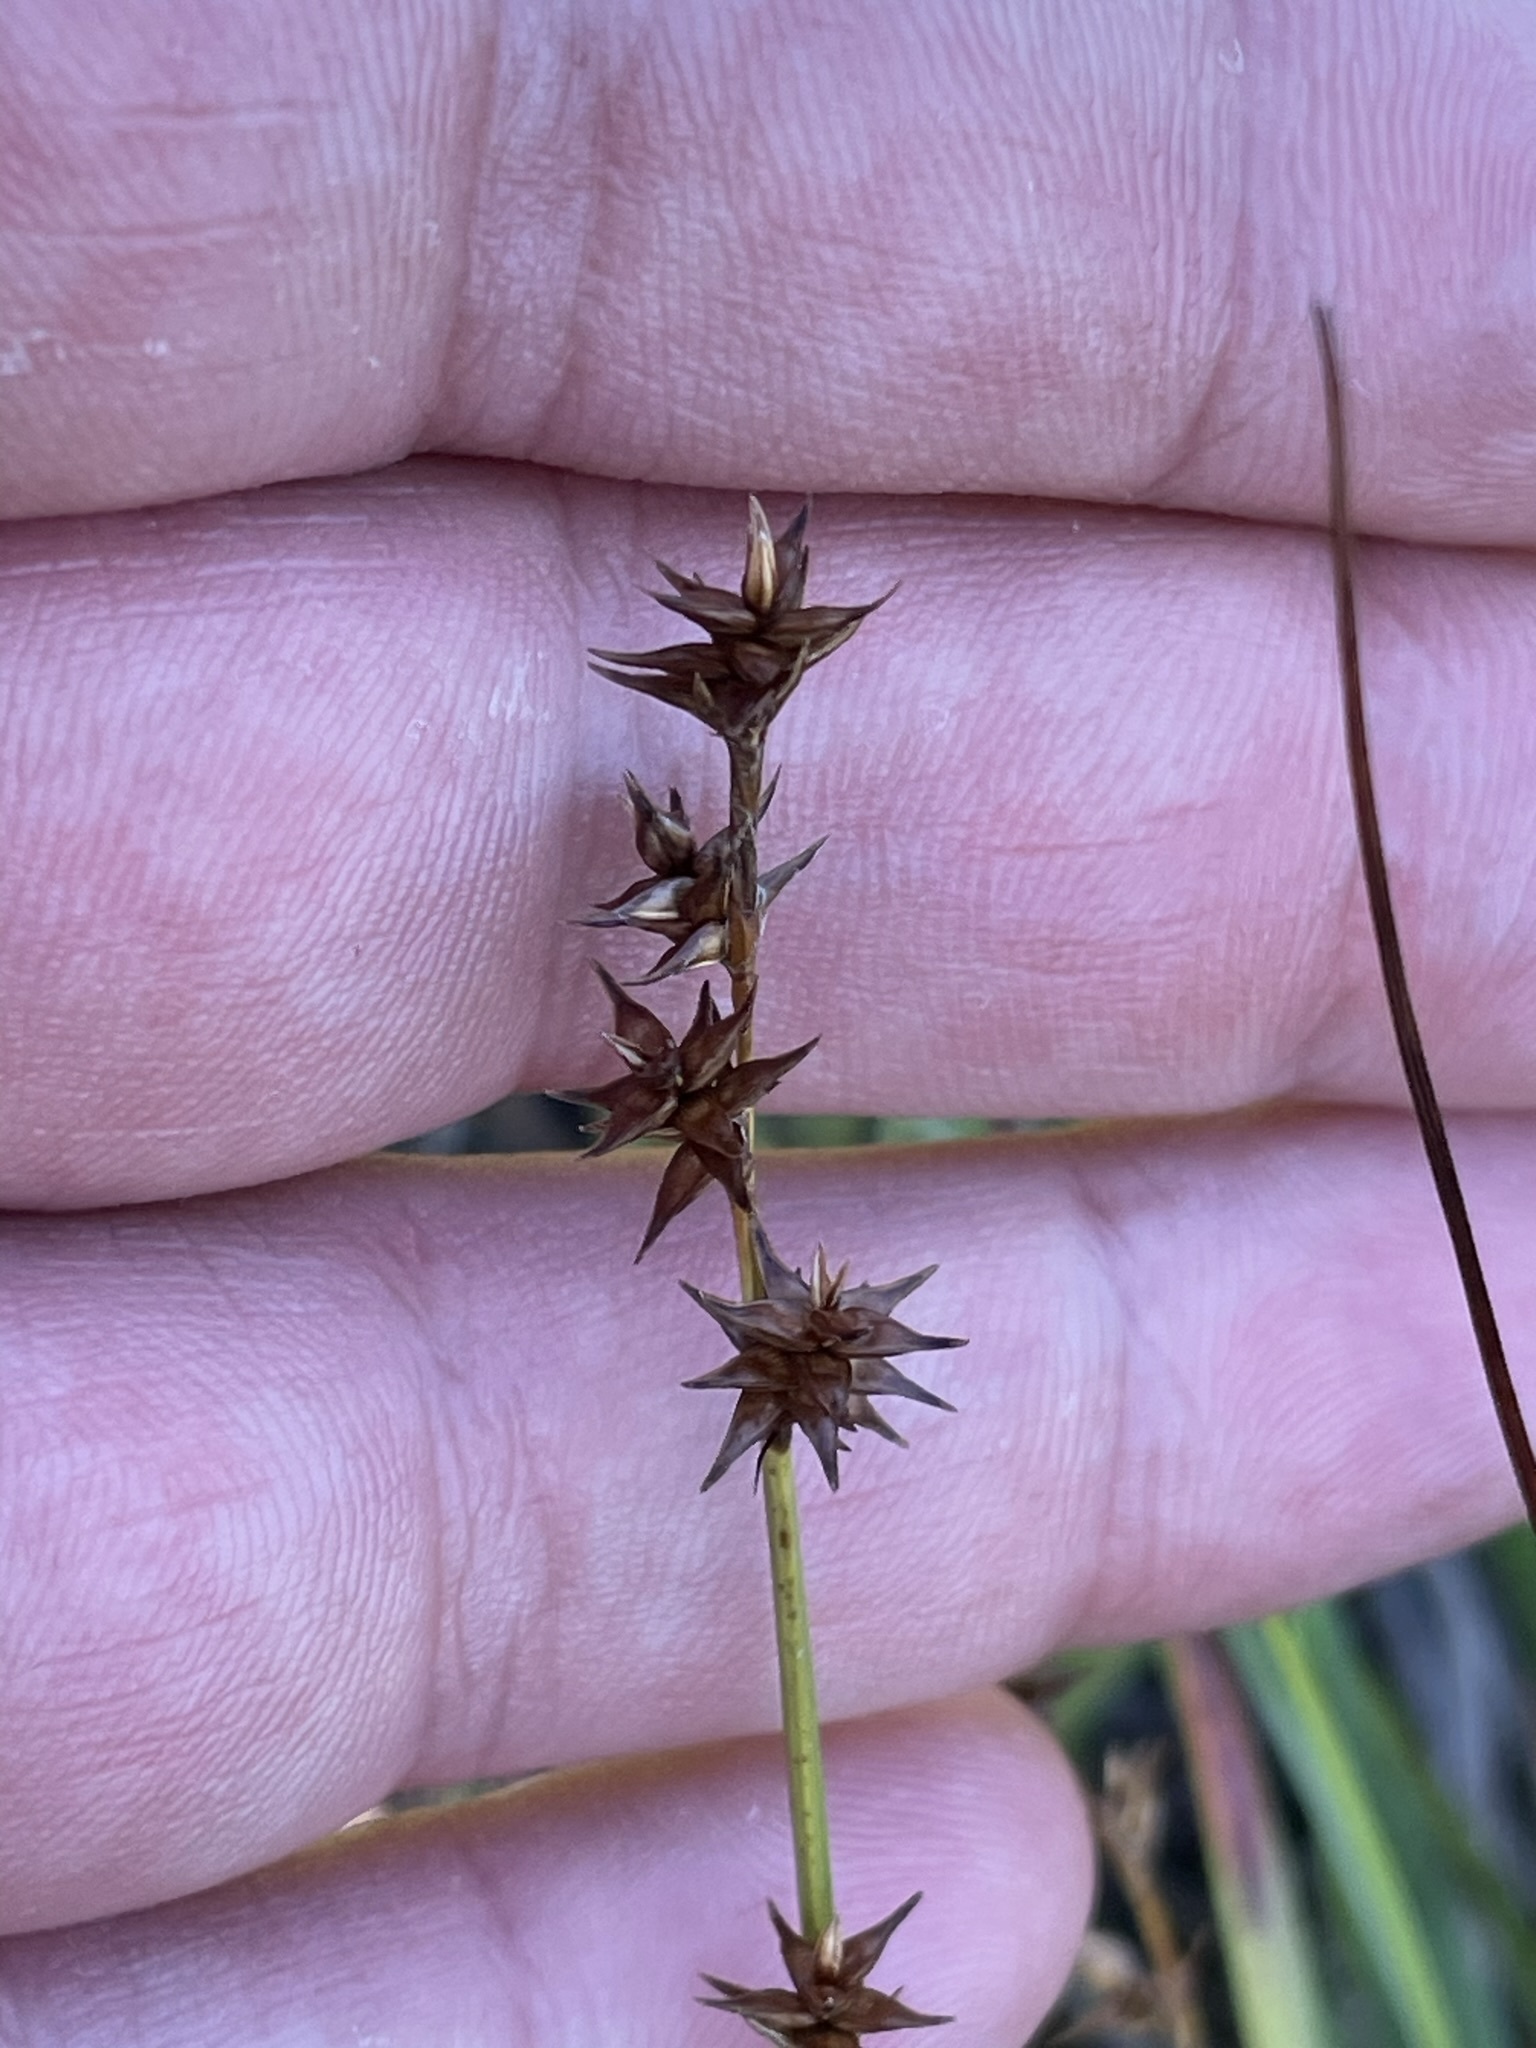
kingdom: Plantae
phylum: Tracheophyta
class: Liliopsida
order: Poales
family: Cyperaceae
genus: Carex
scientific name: Carex echinata
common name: Star sedge
